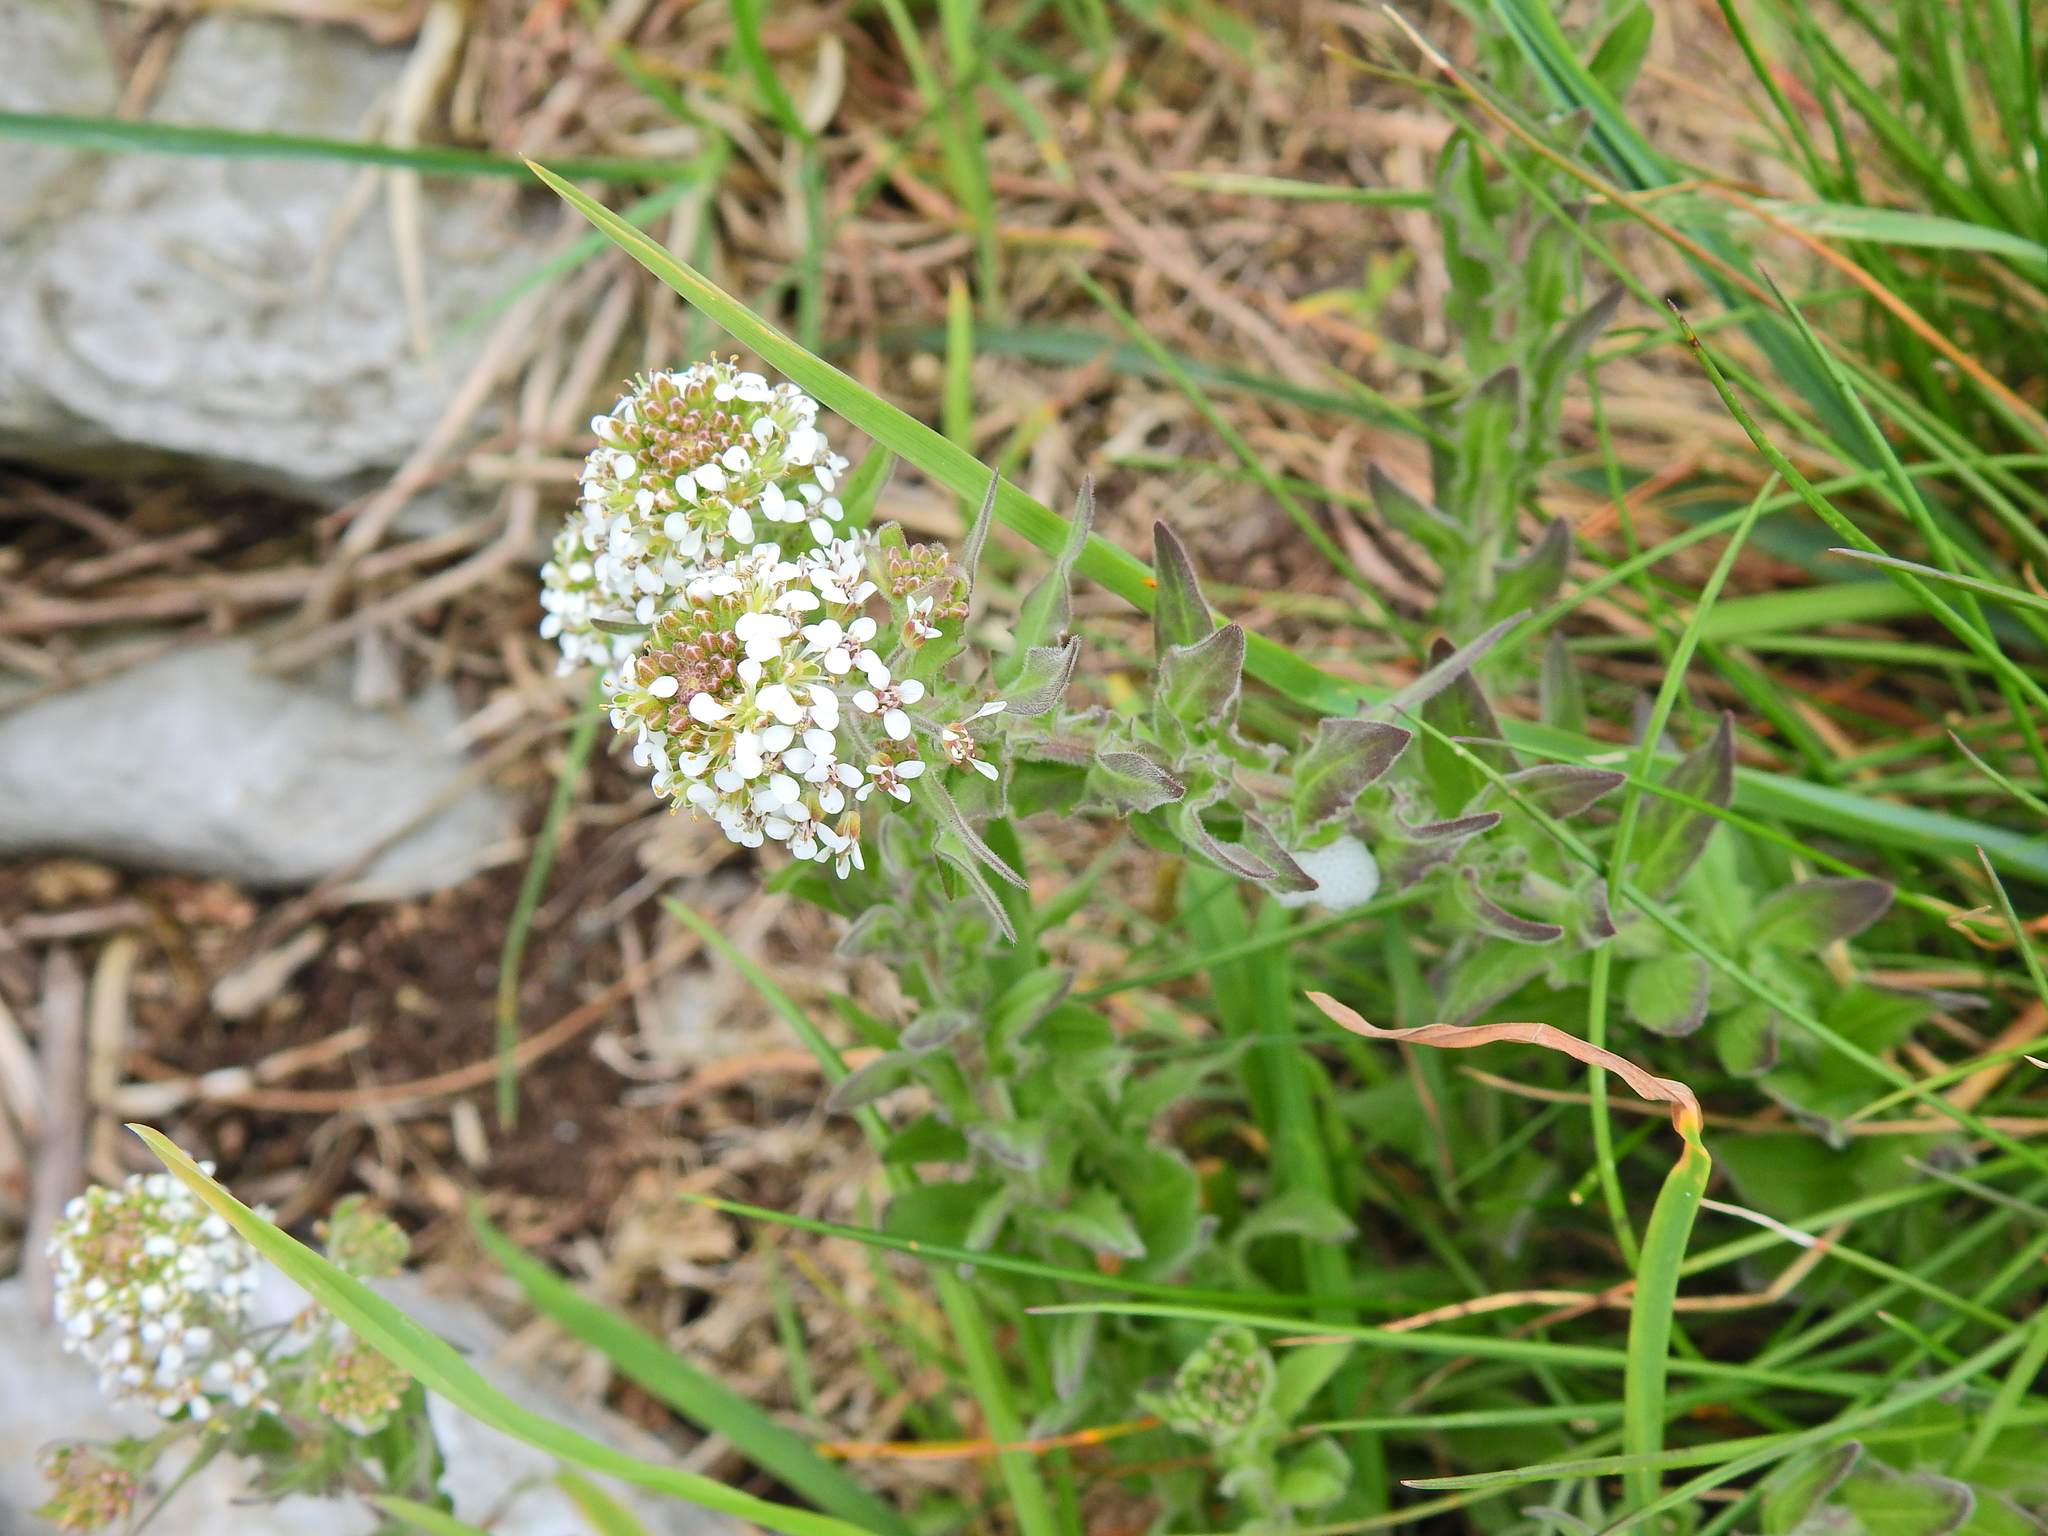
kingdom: Plantae
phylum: Tracheophyta
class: Magnoliopsida
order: Brassicales
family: Brassicaceae
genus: Lepidium
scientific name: Lepidium heterophyllum
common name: Smith's pepperwort
